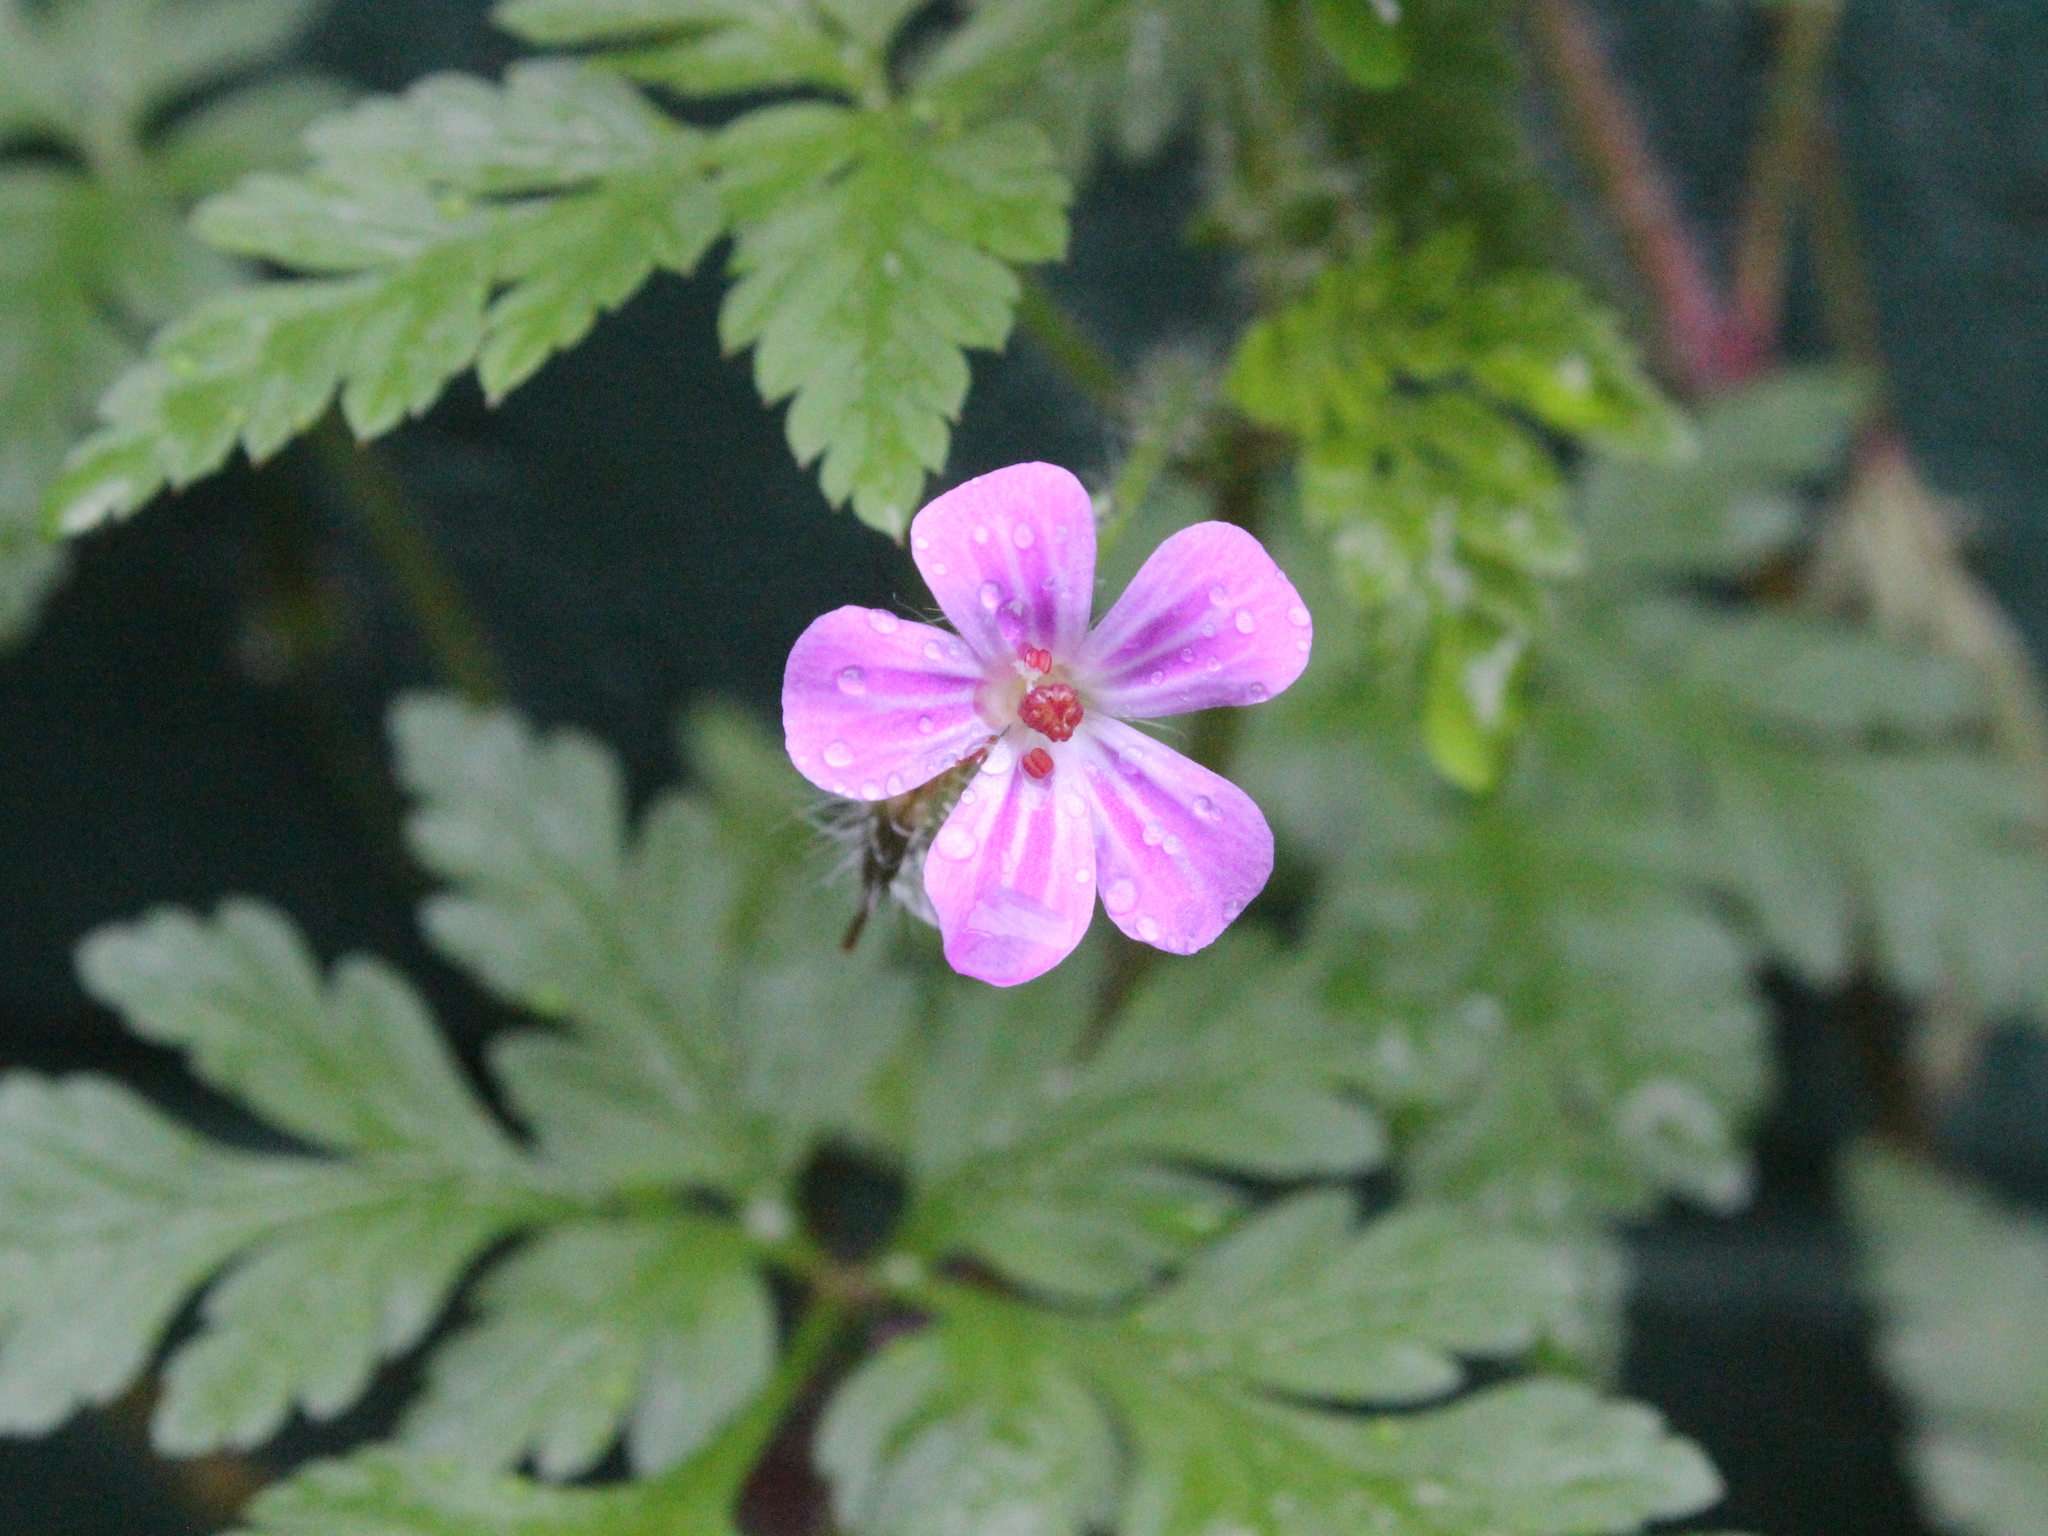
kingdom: Plantae
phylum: Tracheophyta
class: Magnoliopsida
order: Geraniales
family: Geraniaceae
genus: Geranium
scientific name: Geranium robertianum
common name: Herb-robert
